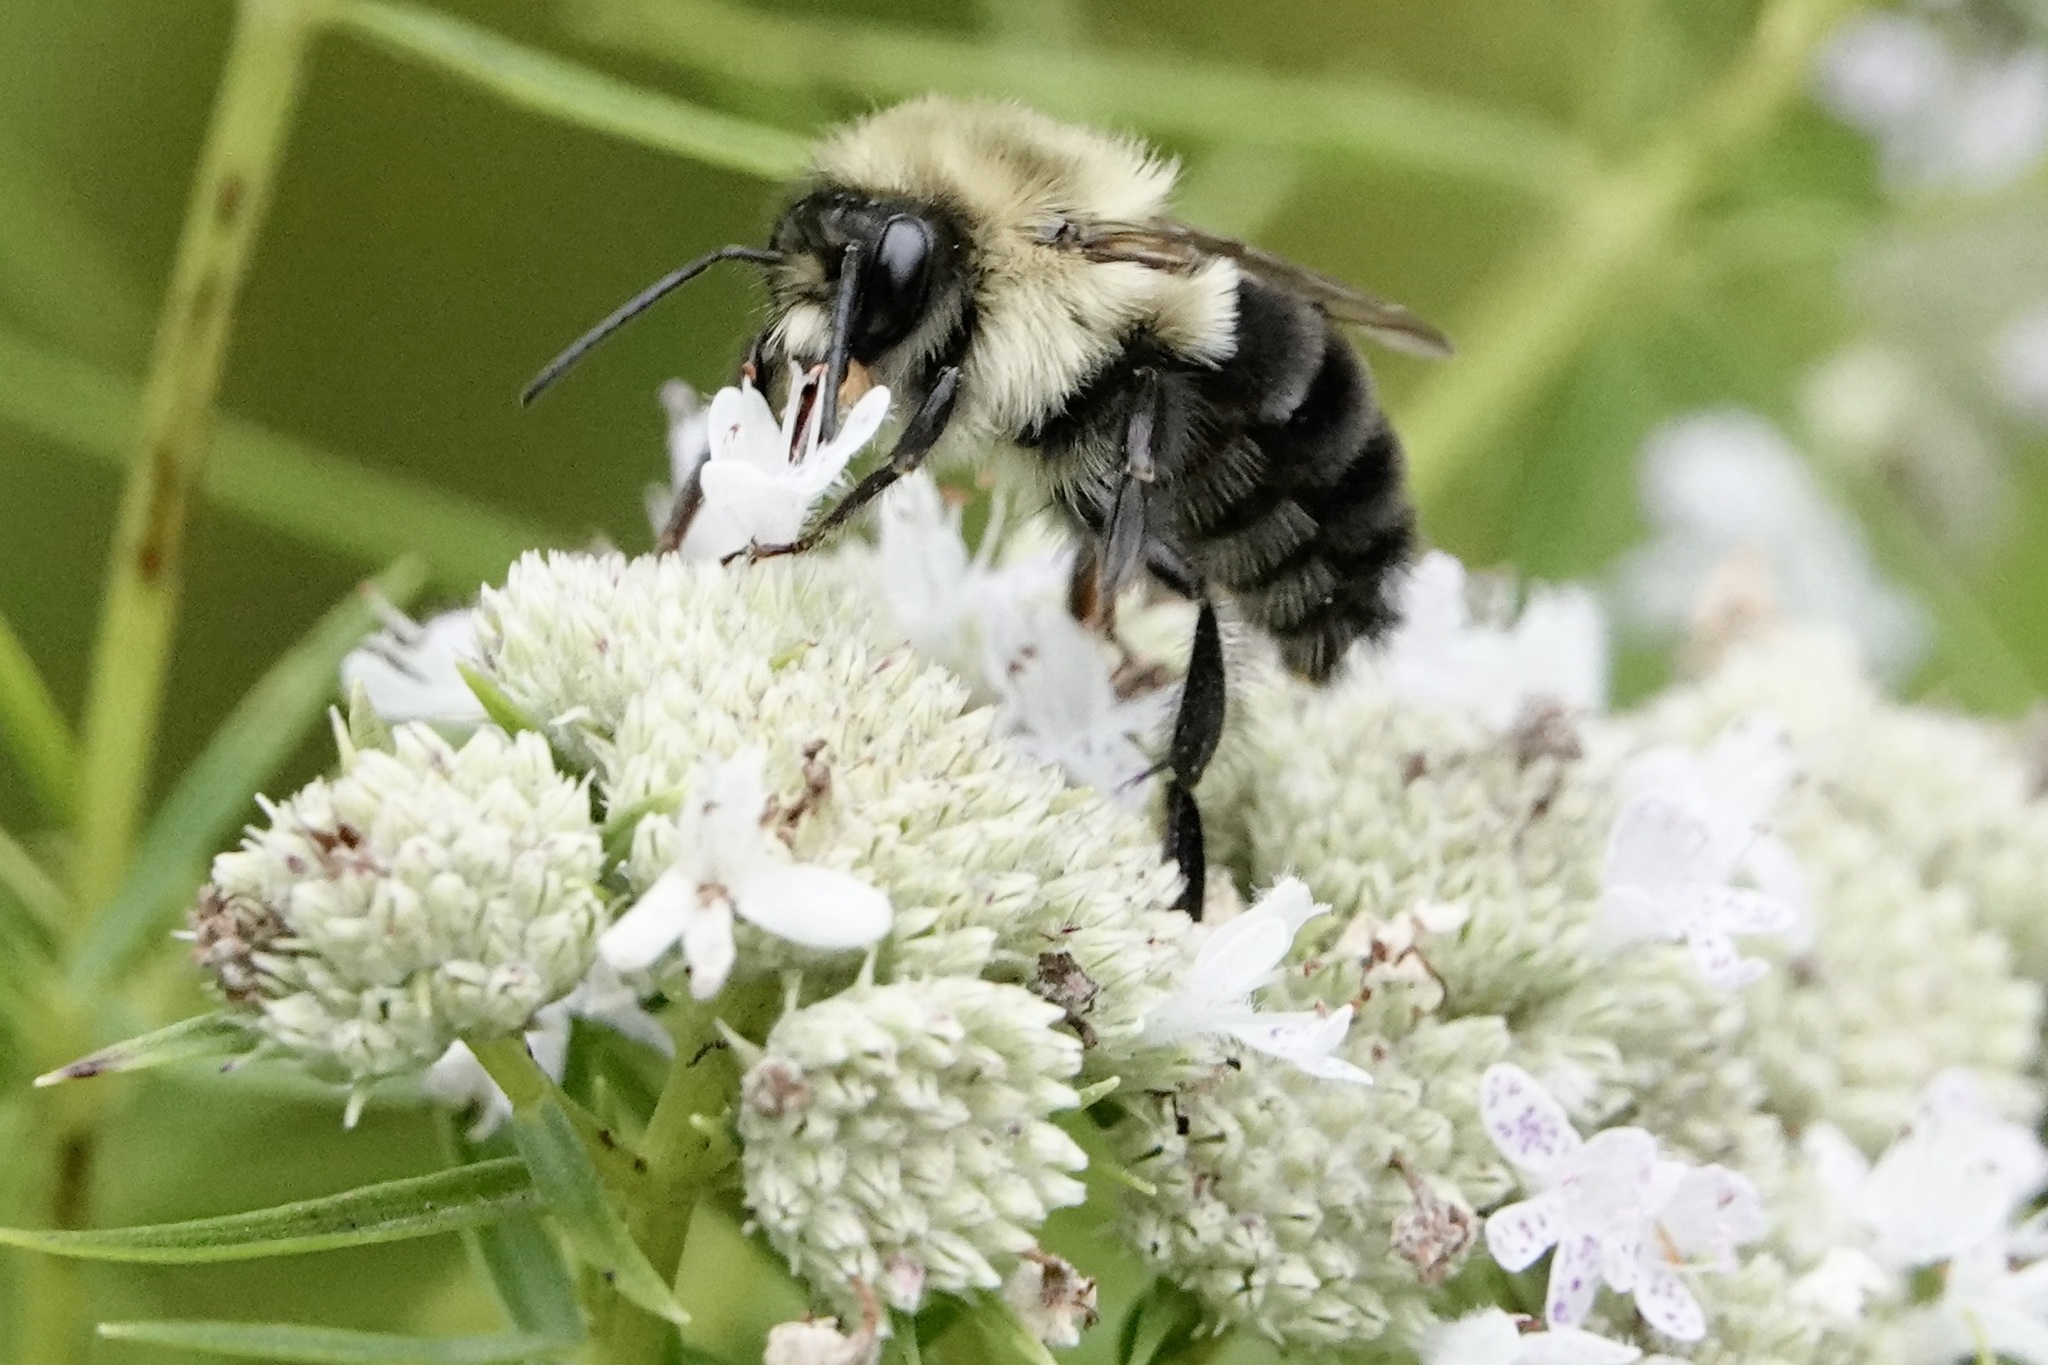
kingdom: Animalia
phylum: Arthropoda
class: Insecta
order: Hymenoptera
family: Apidae
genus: Bombus
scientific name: Bombus impatiens
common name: Common eastern bumble bee
